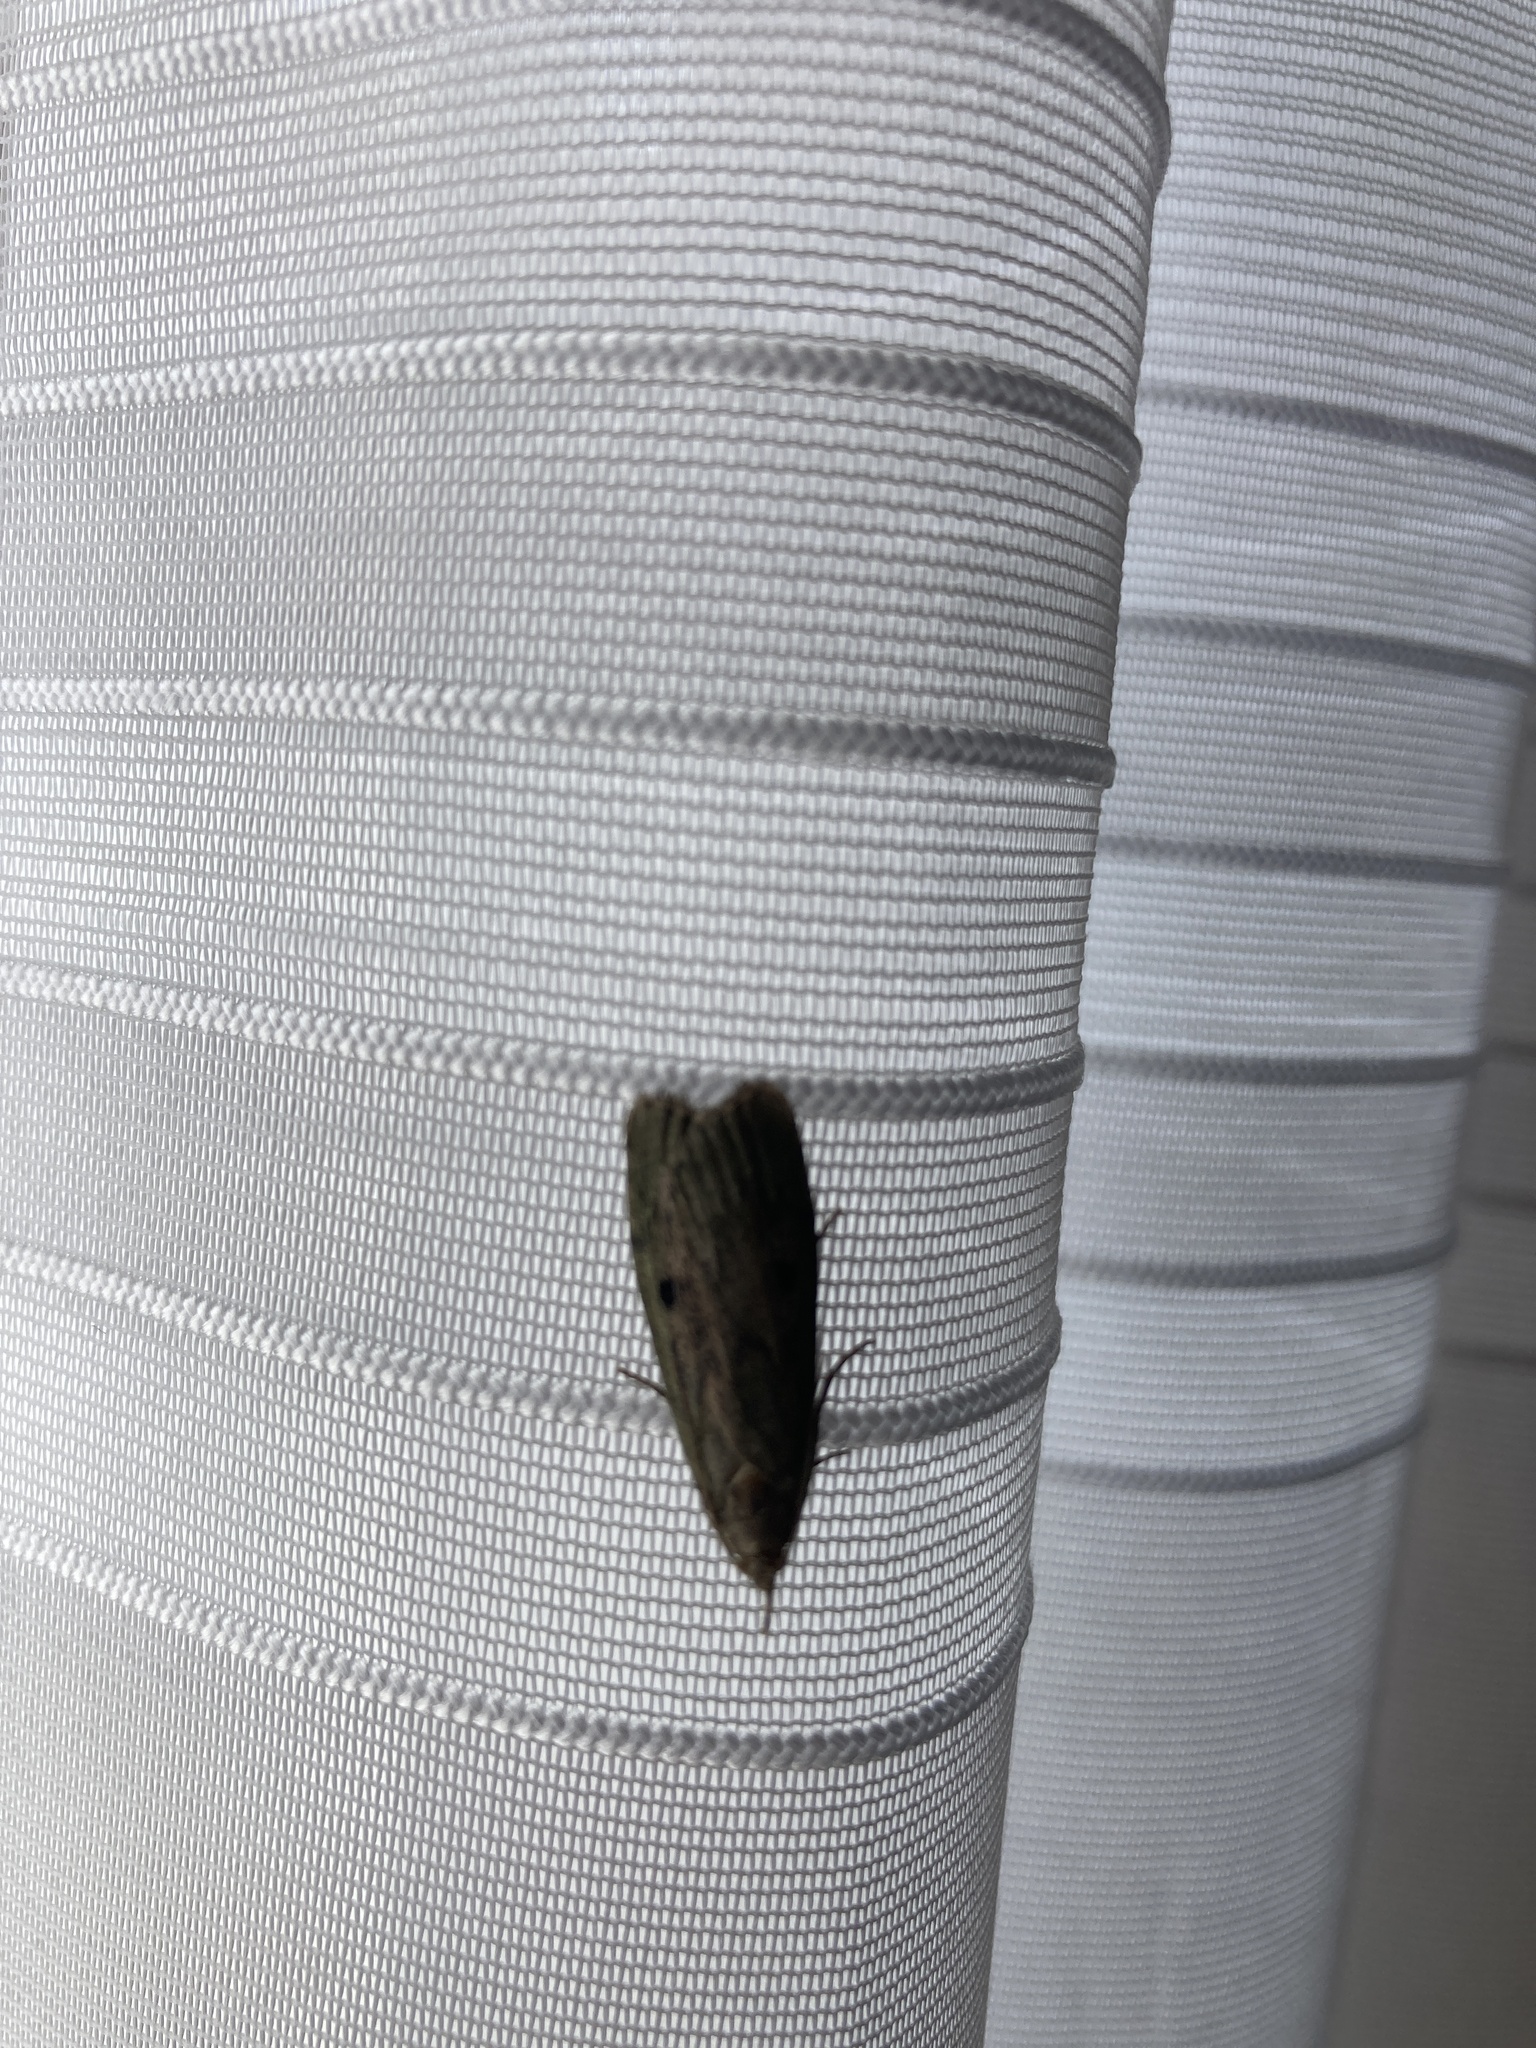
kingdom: Animalia
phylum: Arthropoda
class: Insecta
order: Lepidoptera
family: Pyralidae
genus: Aphomia
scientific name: Aphomia sociella
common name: Bee moth
